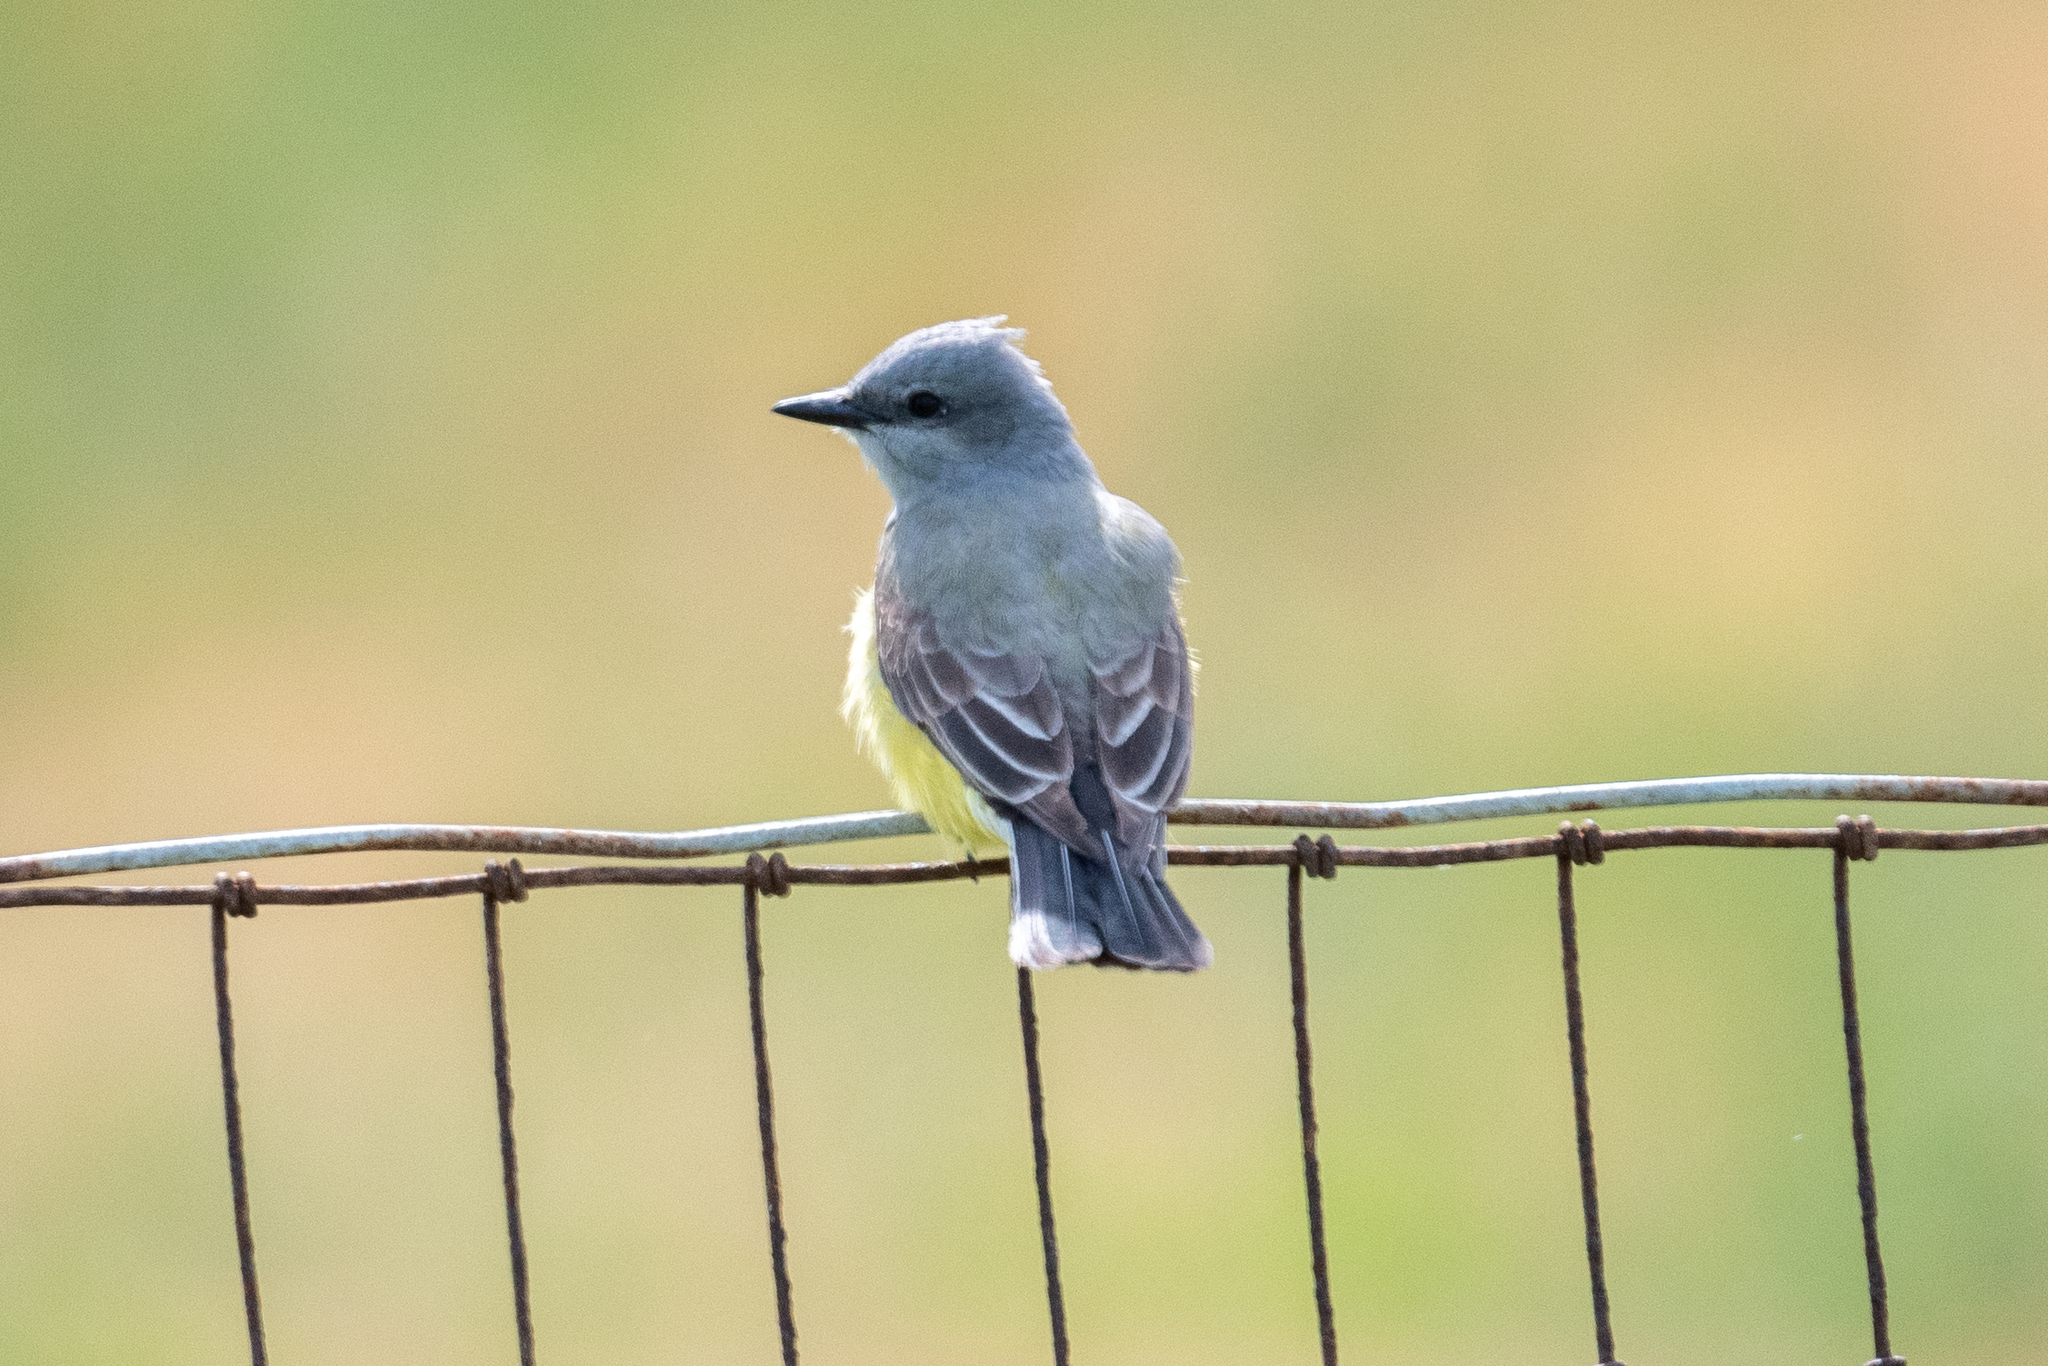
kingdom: Animalia
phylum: Chordata
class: Aves
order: Passeriformes
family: Tyrannidae
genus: Tyrannus
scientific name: Tyrannus verticalis
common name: Western kingbird
